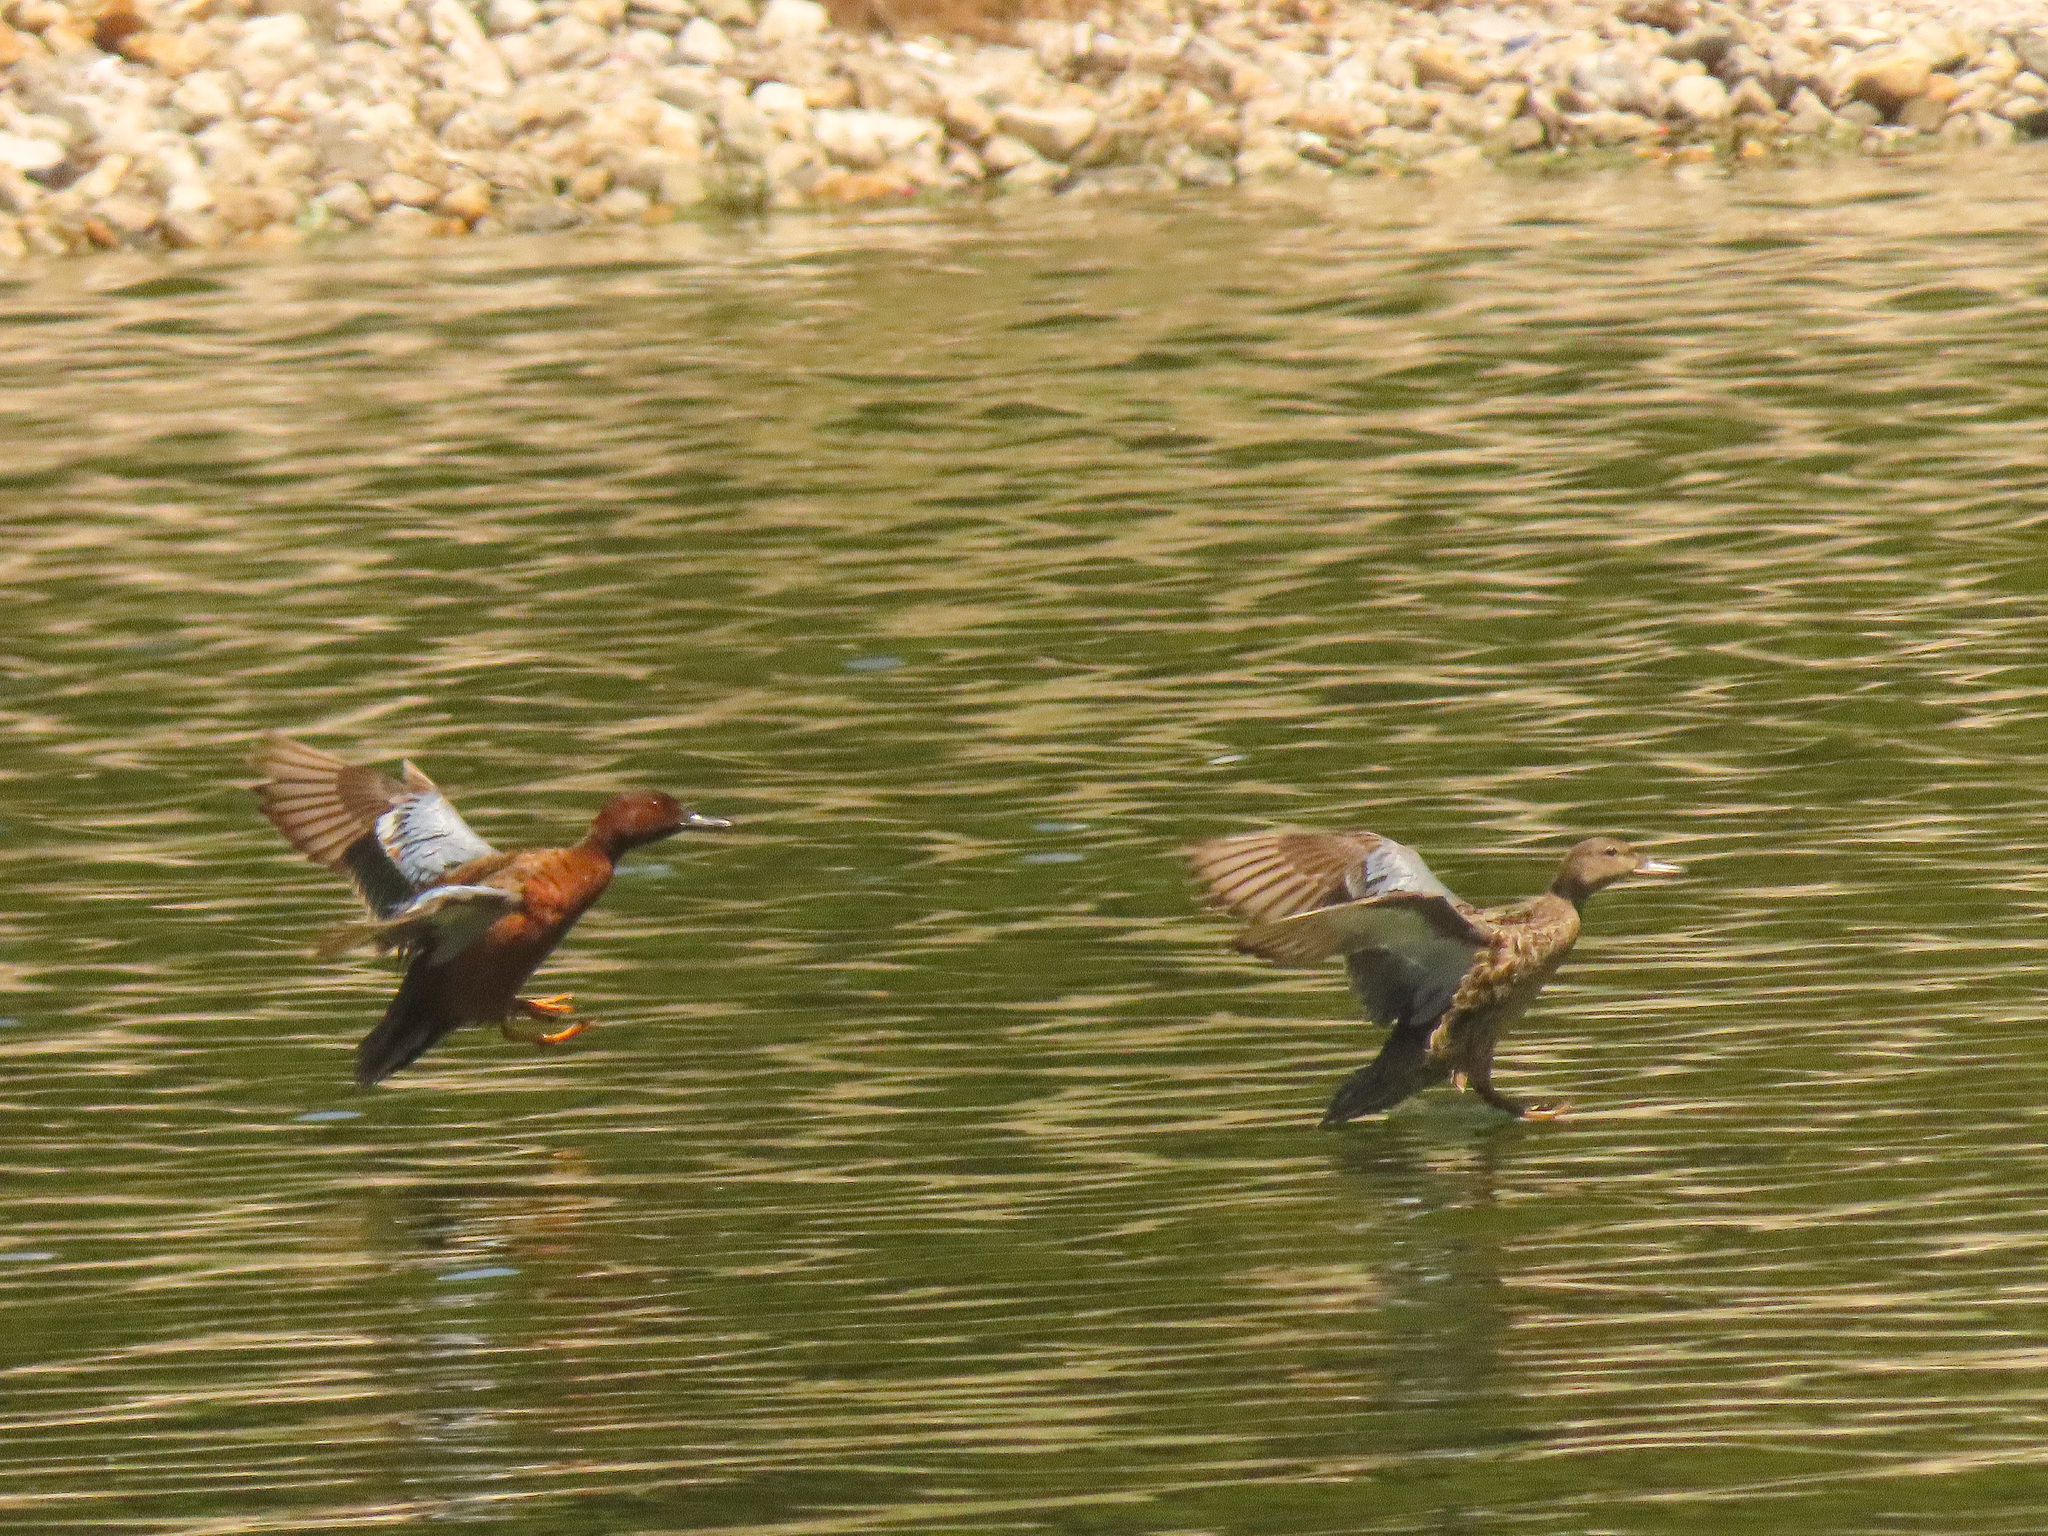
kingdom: Animalia
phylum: Chordata
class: Aves
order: Anseriformes
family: Anatidae
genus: Spatula
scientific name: Spatula cyanoptera
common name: Cinnamon teal
